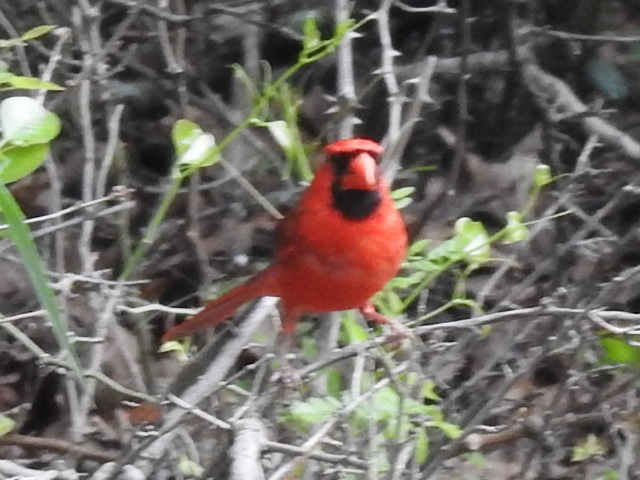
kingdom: Animalia
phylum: Chordata
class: Aves
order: Passeriformes
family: Cardinalidae
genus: Cardinalis
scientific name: Cardinalis cardinalis
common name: Northern cardinal
